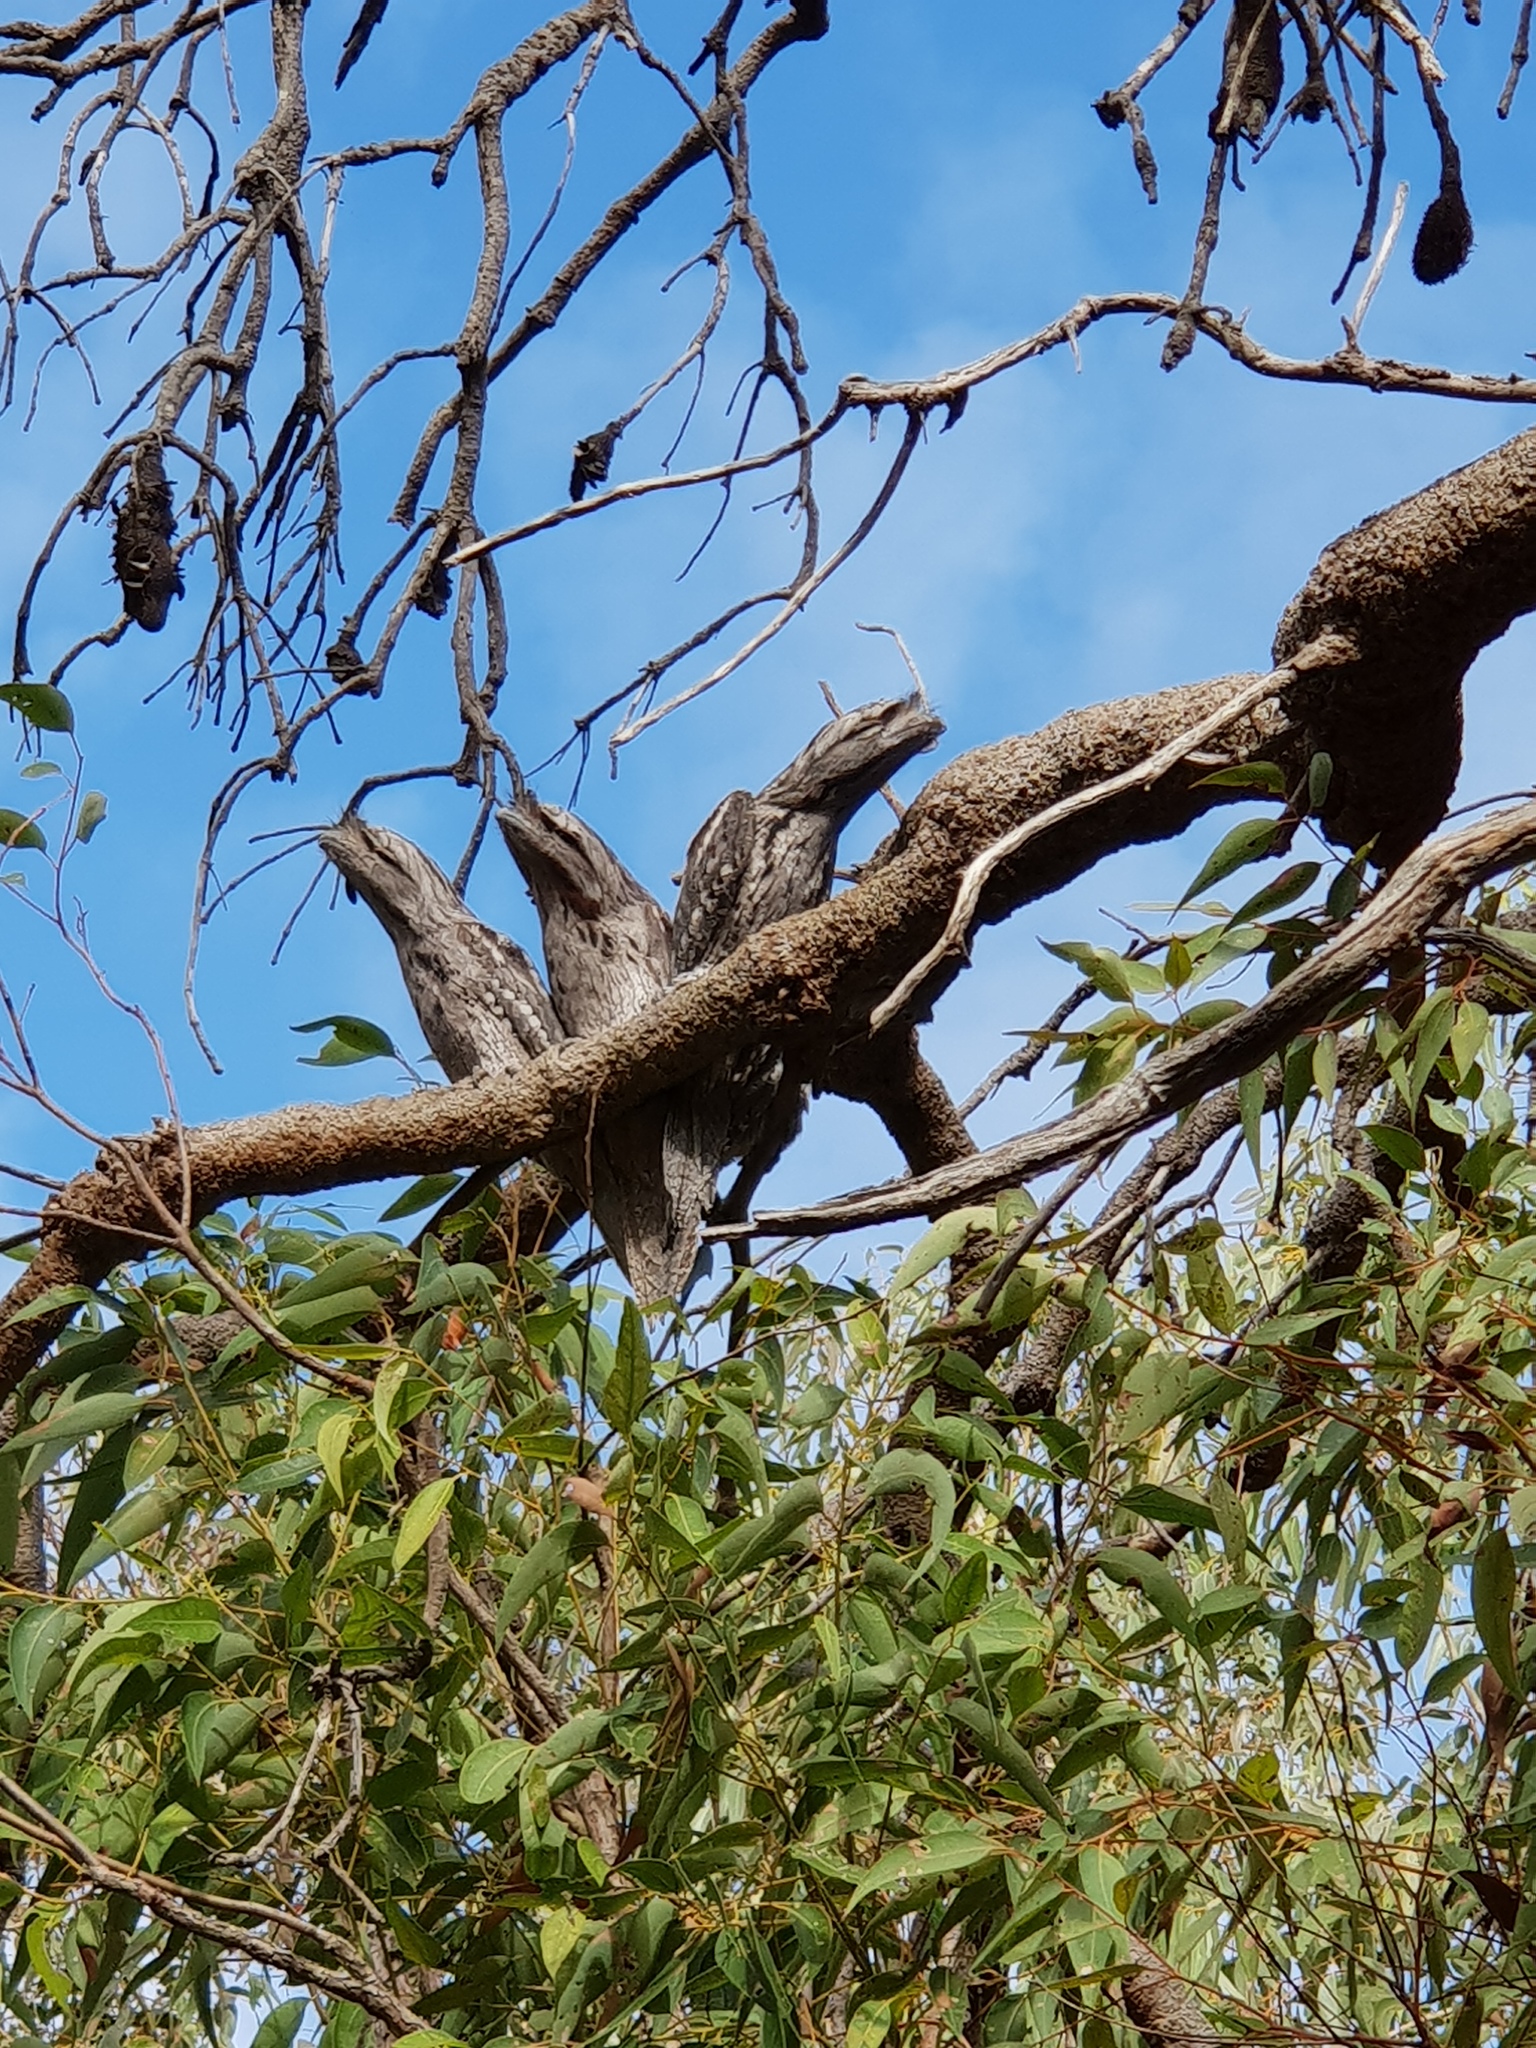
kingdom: Animalia
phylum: Chordata
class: Aves
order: Caprimulgiformes
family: Podargidae
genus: Podargus
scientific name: Podargus strigoides
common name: Tawny frogmouth
